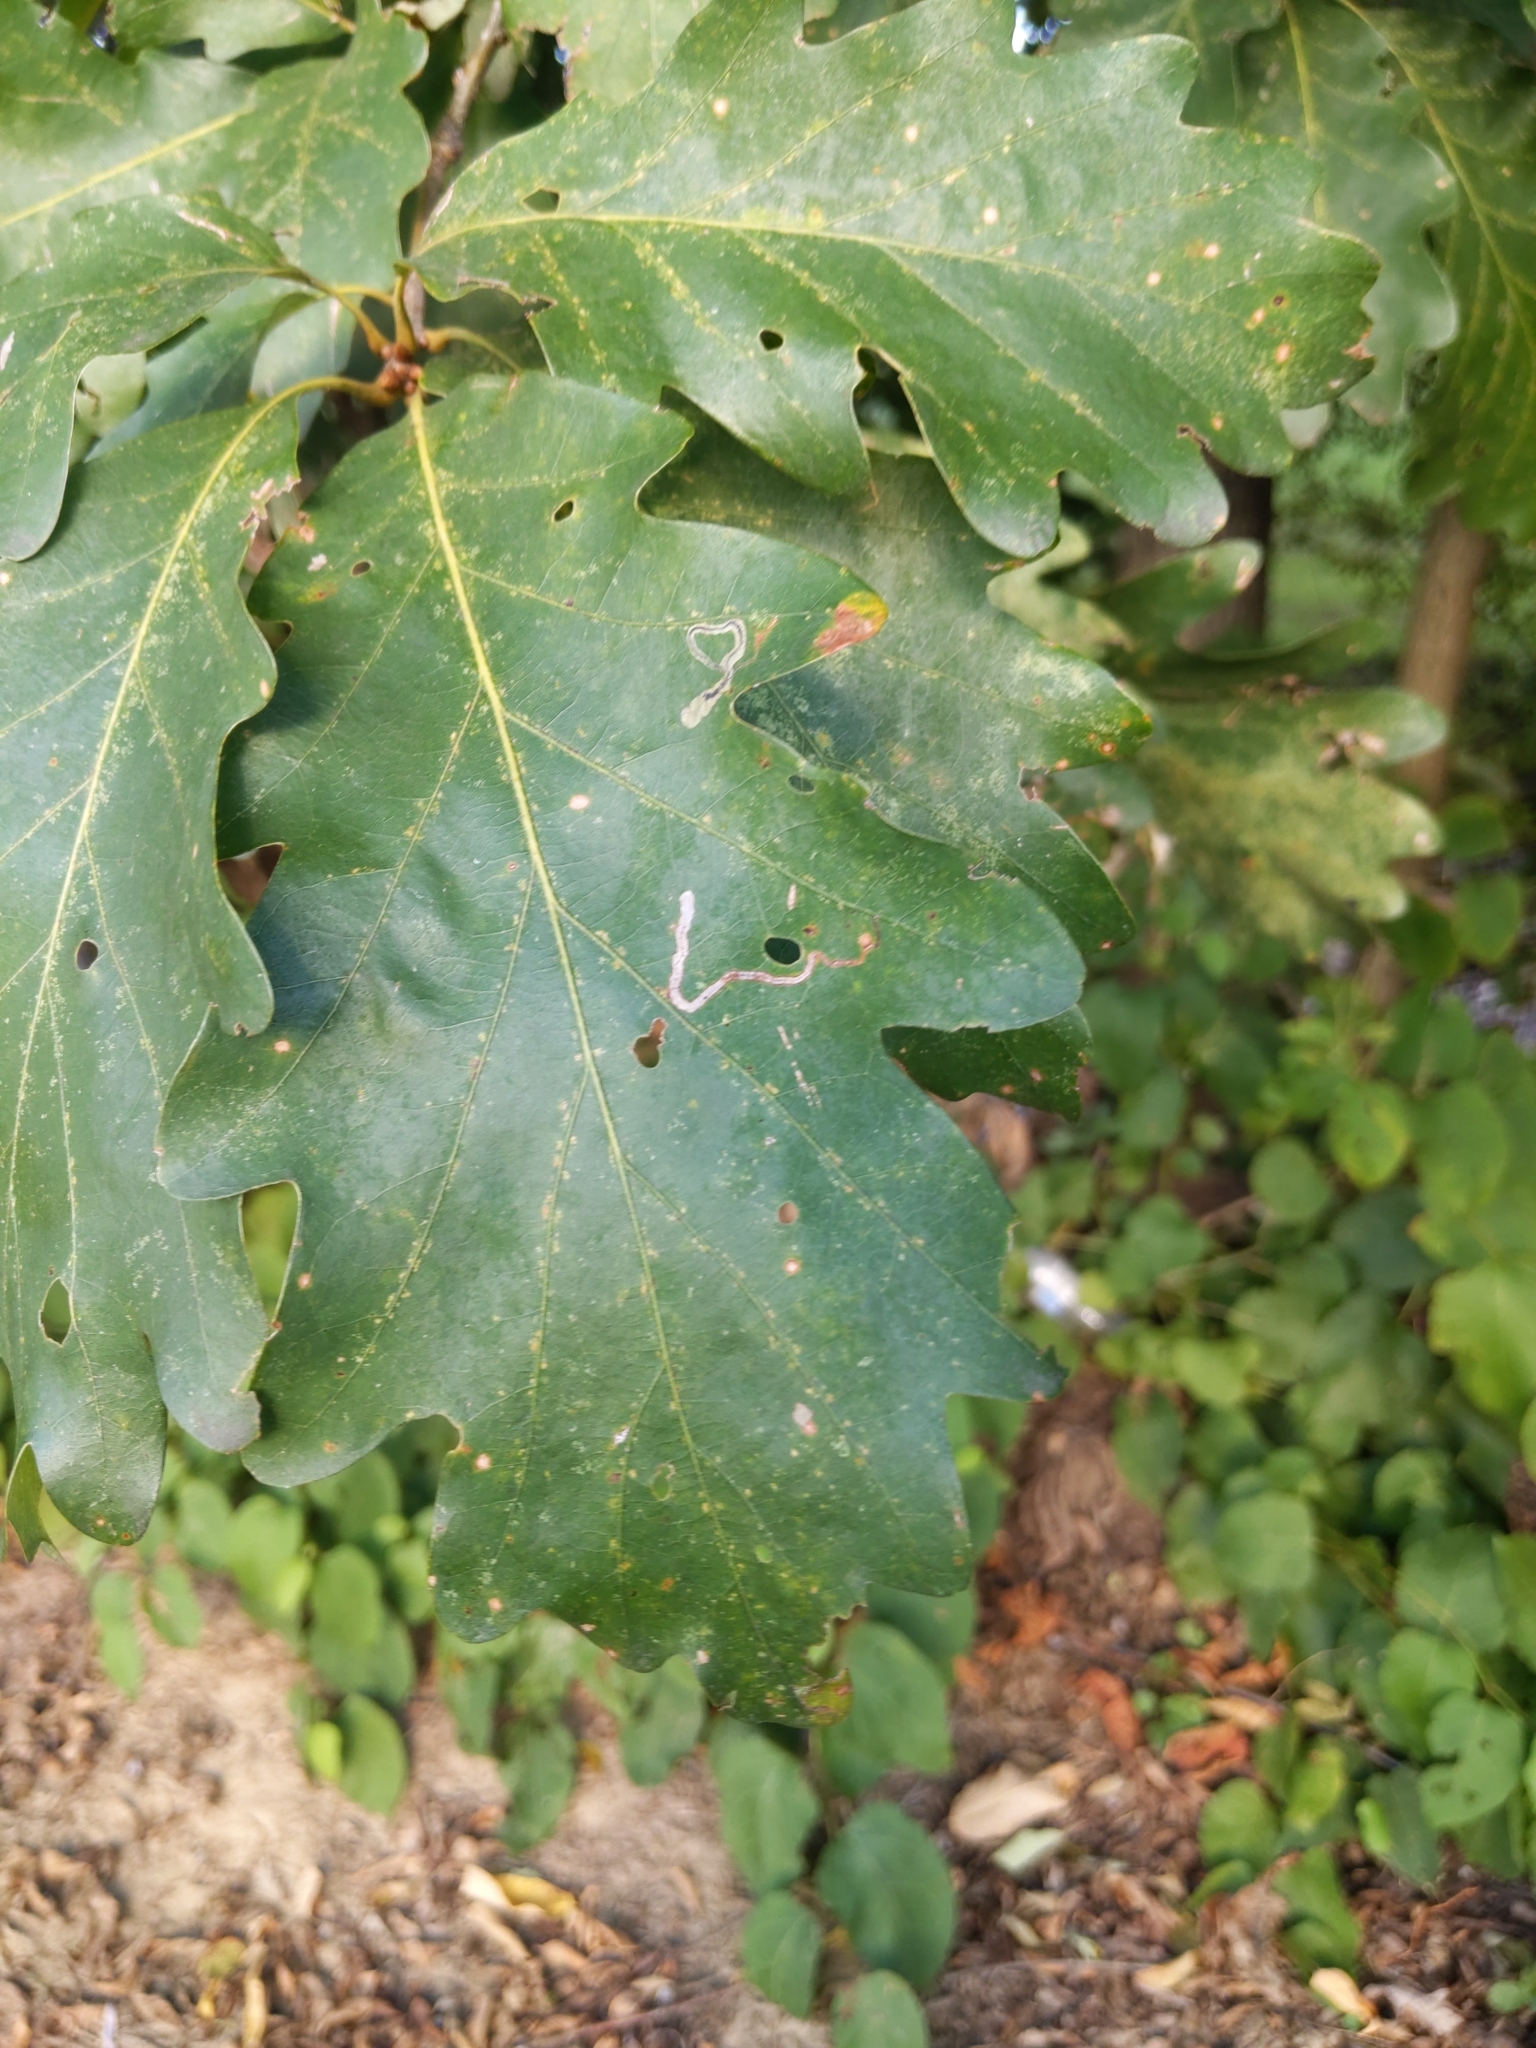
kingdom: Animalia
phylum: Arthropoda
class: Insecta
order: Lepidoptera
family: Nepticulidae
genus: Stigmella
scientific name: Stigmella
